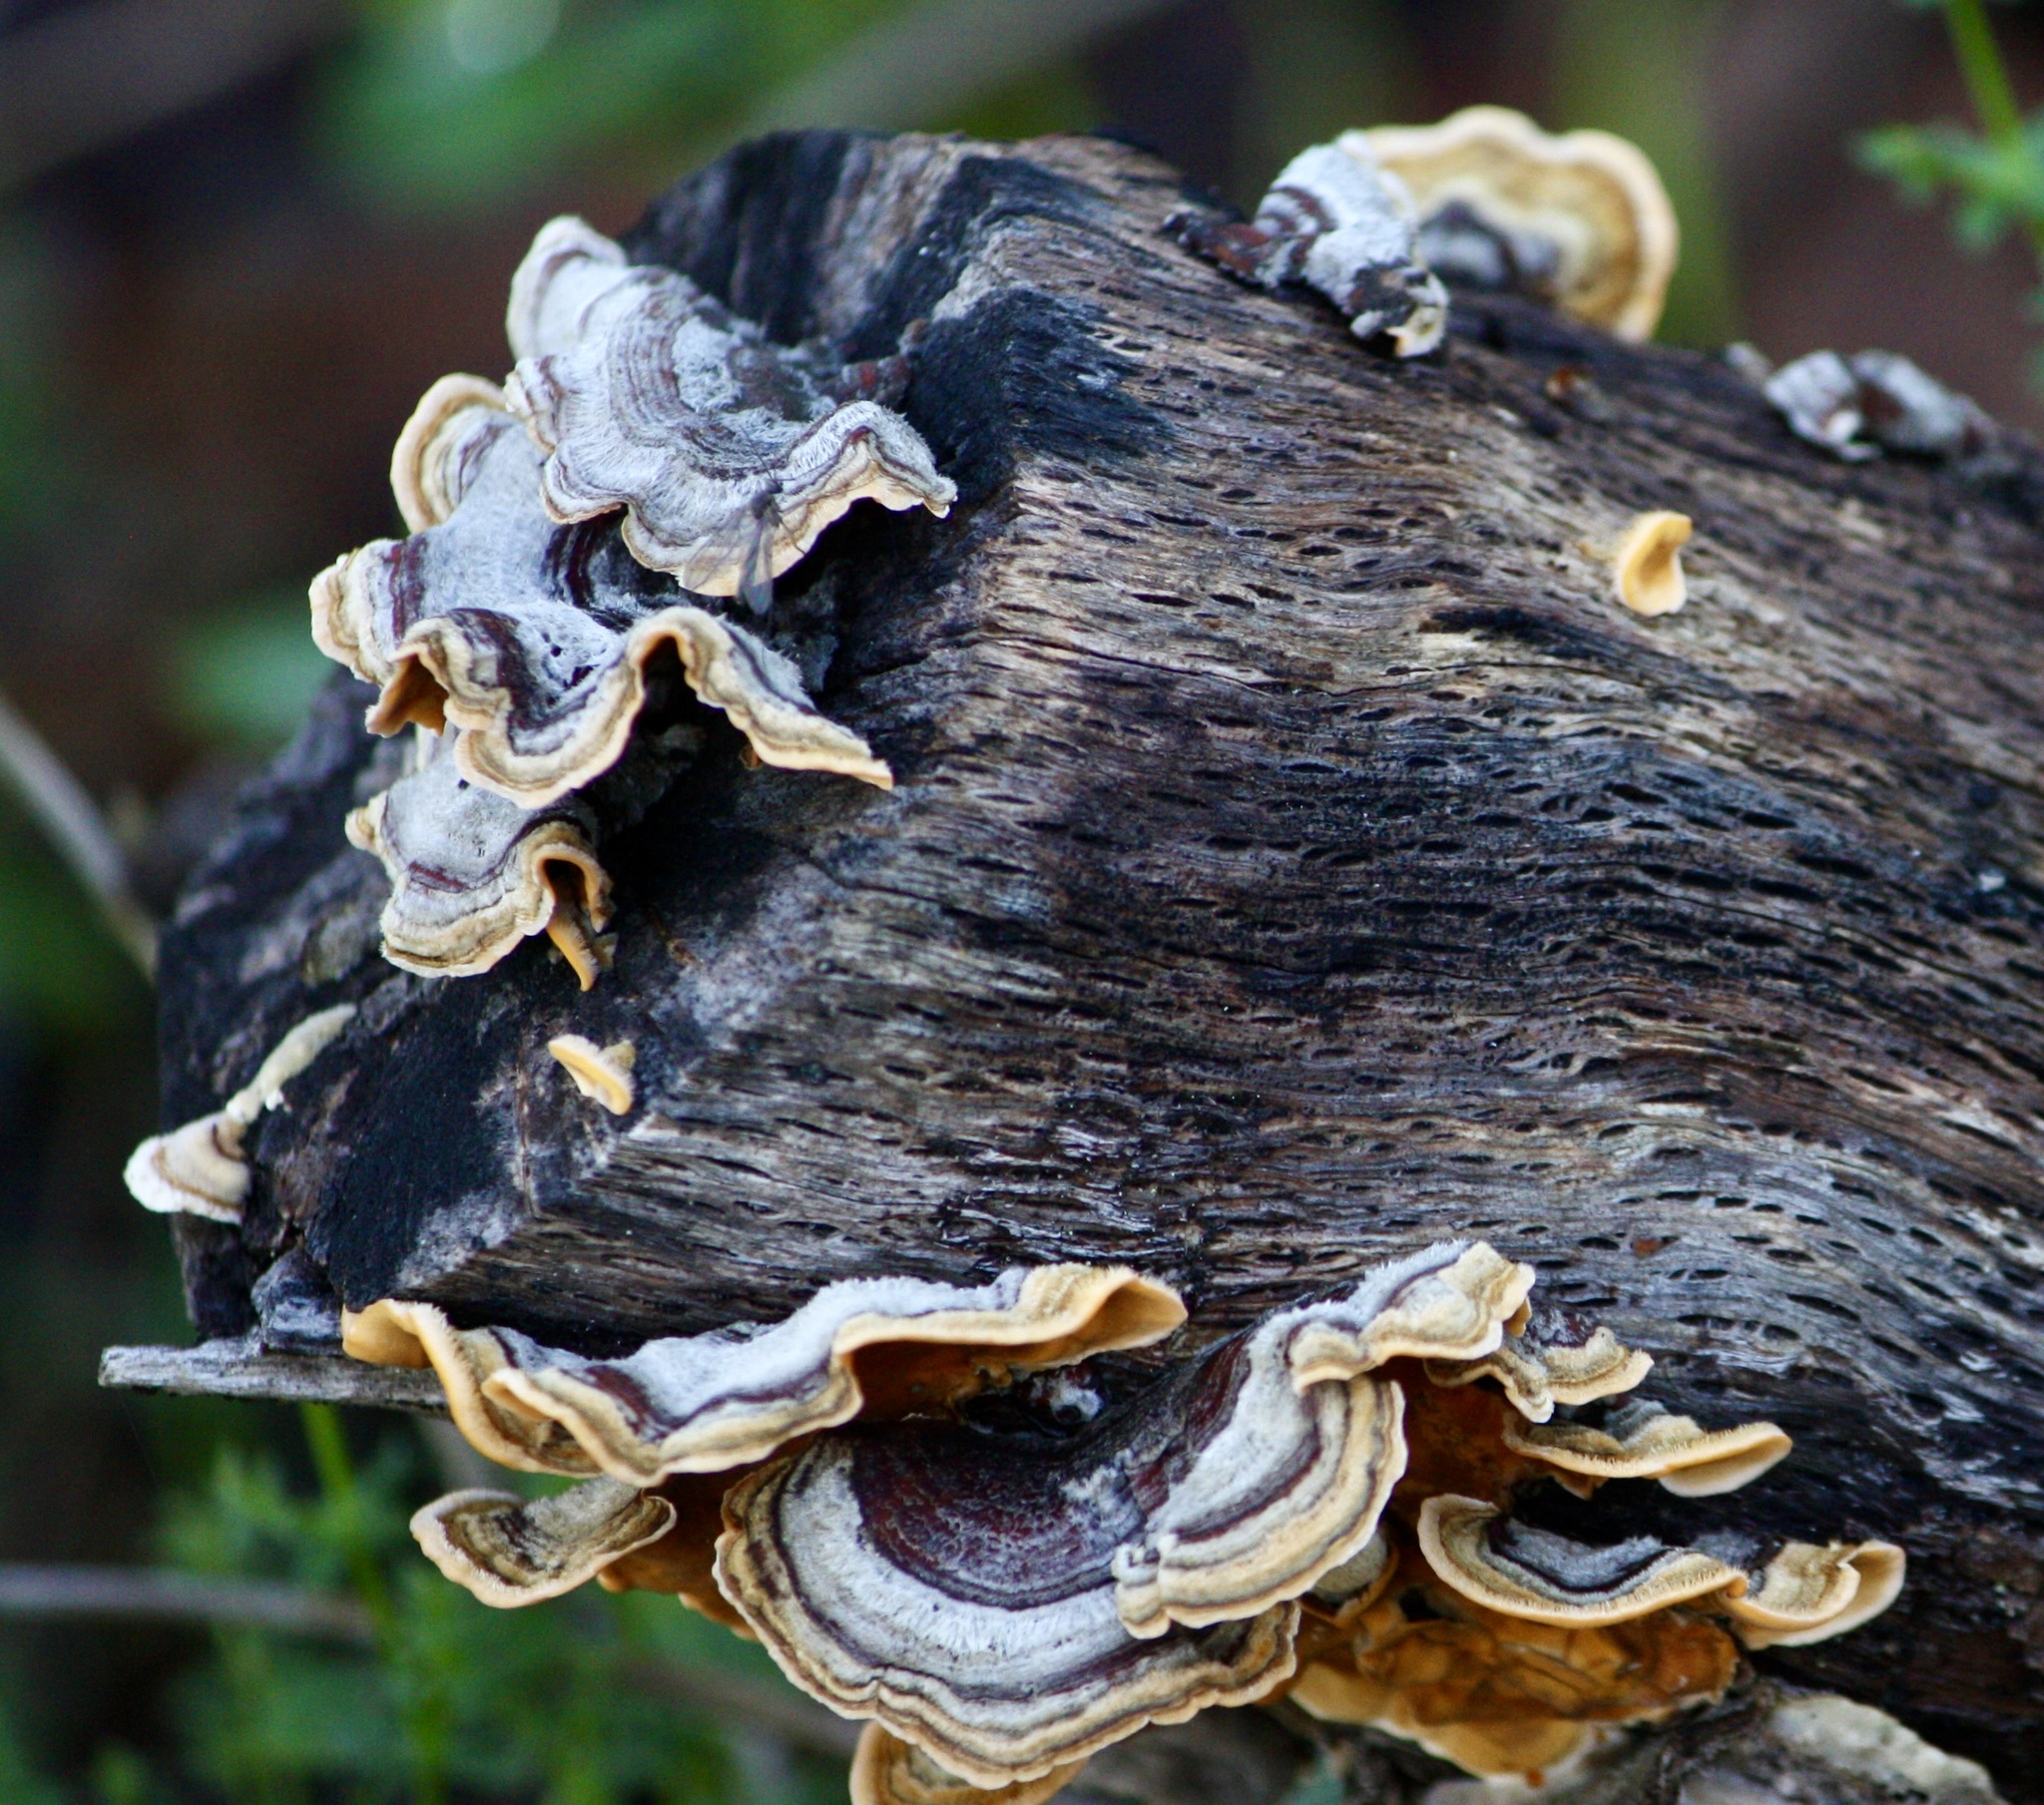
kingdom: Fungi
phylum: Basidiomycota
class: Agaricomycetes
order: Russulales
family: Stereaceae
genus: Stereum
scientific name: Stereum hirsutum
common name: Hairy curtain crust
